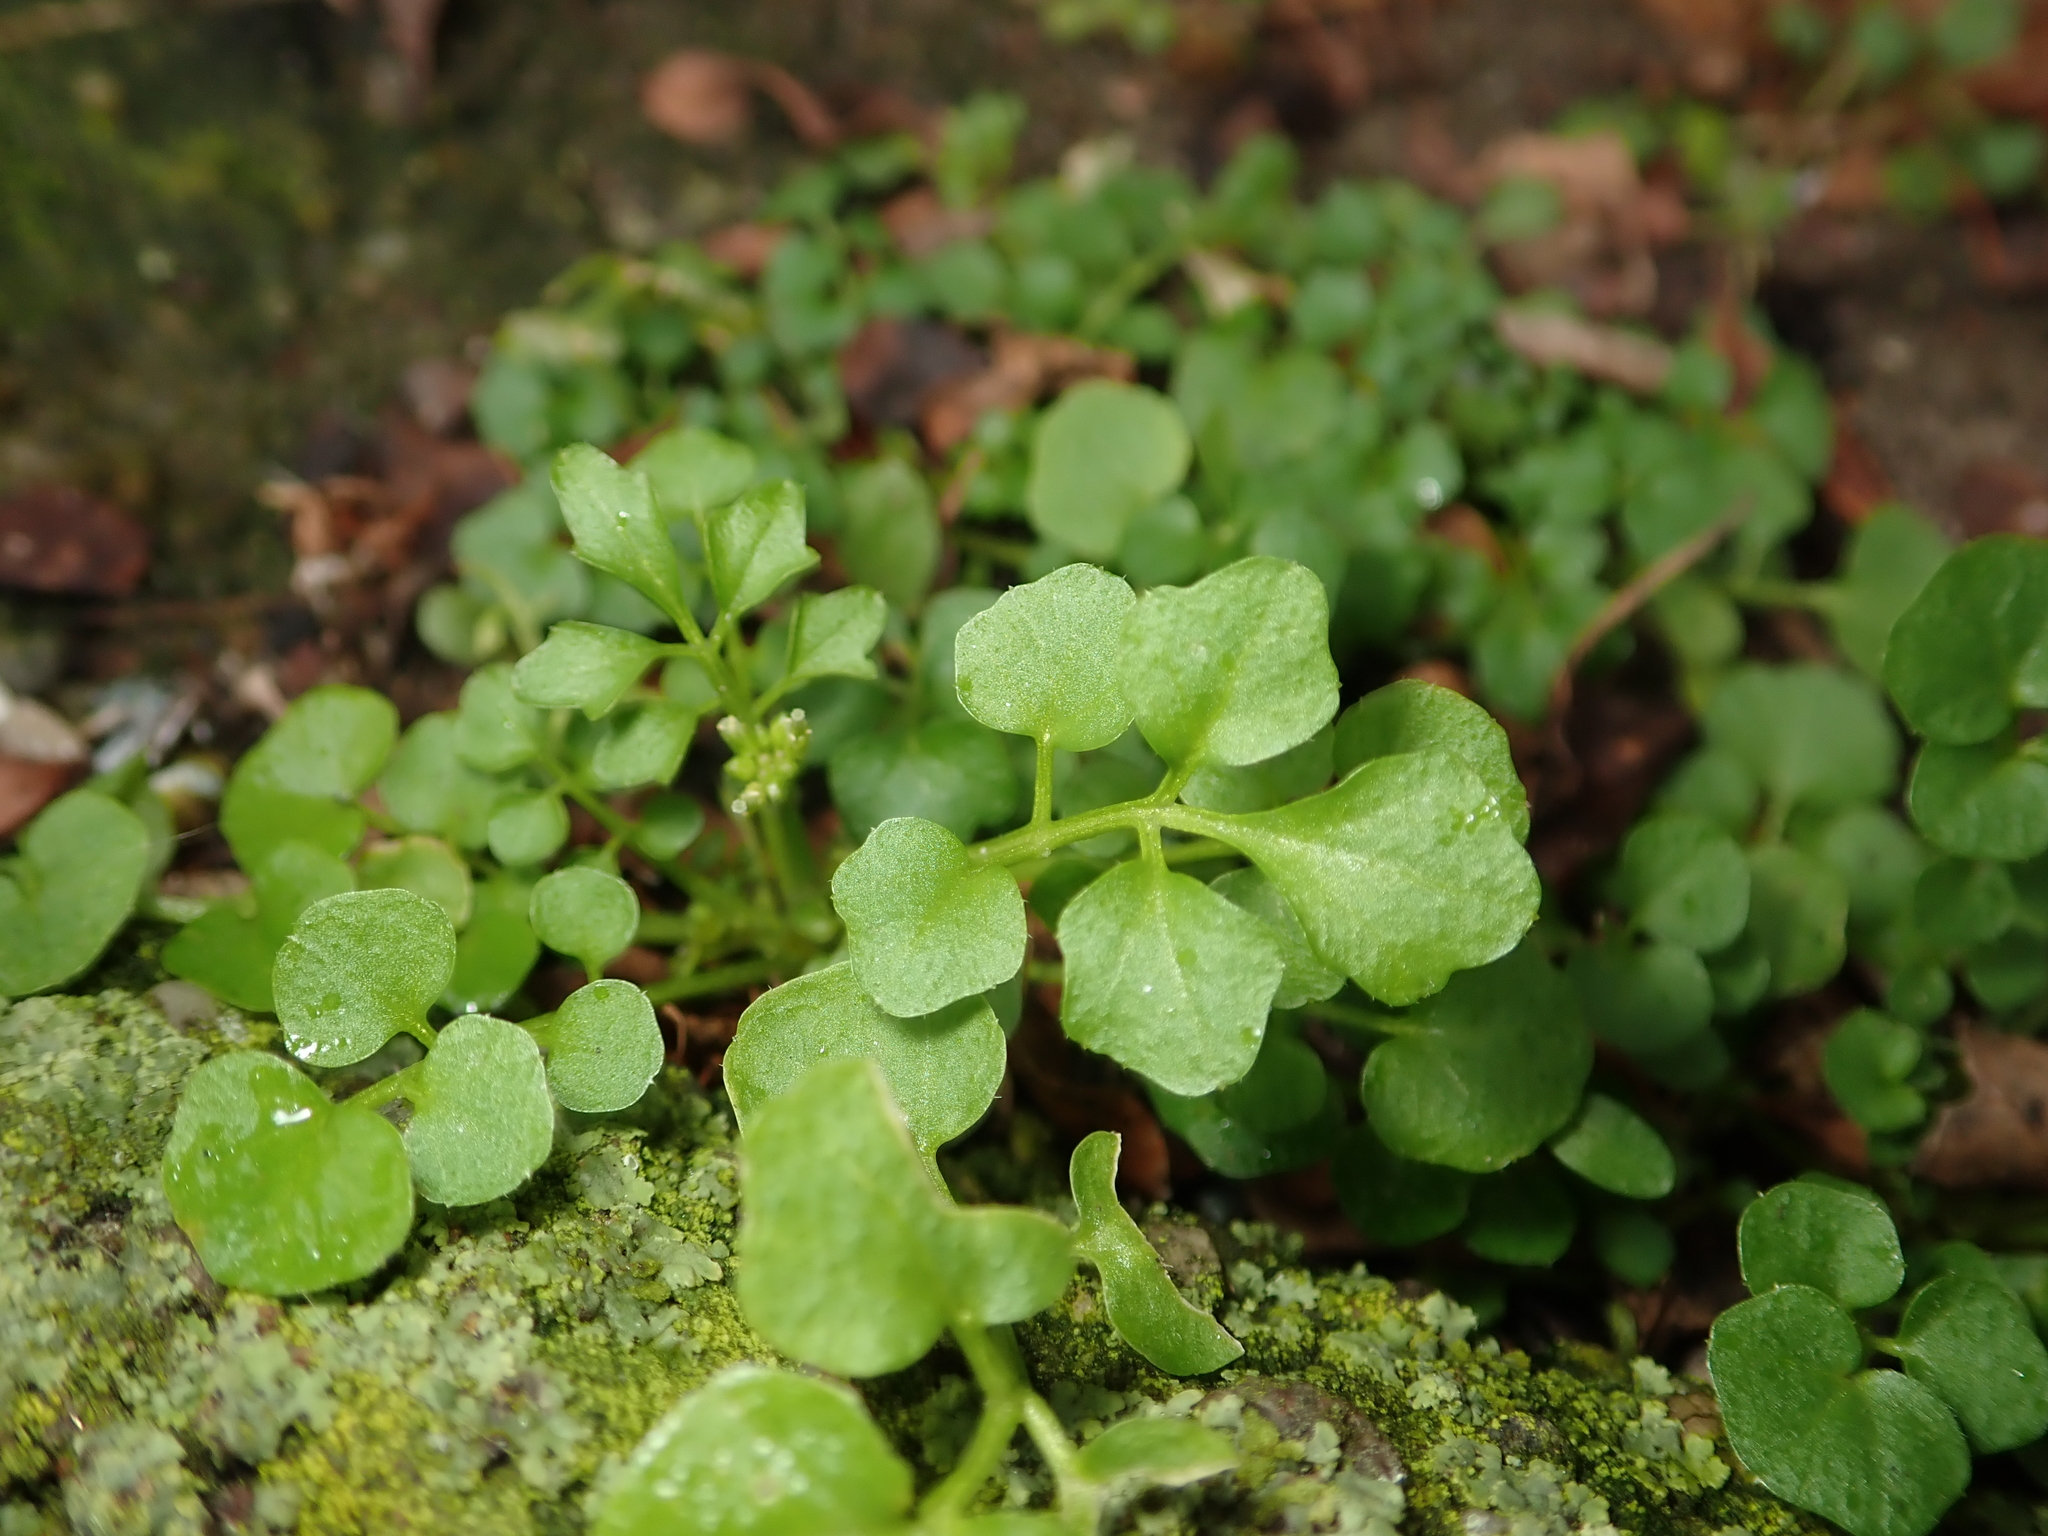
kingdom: Plantae
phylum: Tracheophyta
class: Magnoliopsida
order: Brassicales
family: Brassicaceae
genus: Cardamine
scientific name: Cardamine hirsuta
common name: Hairy bittercress
